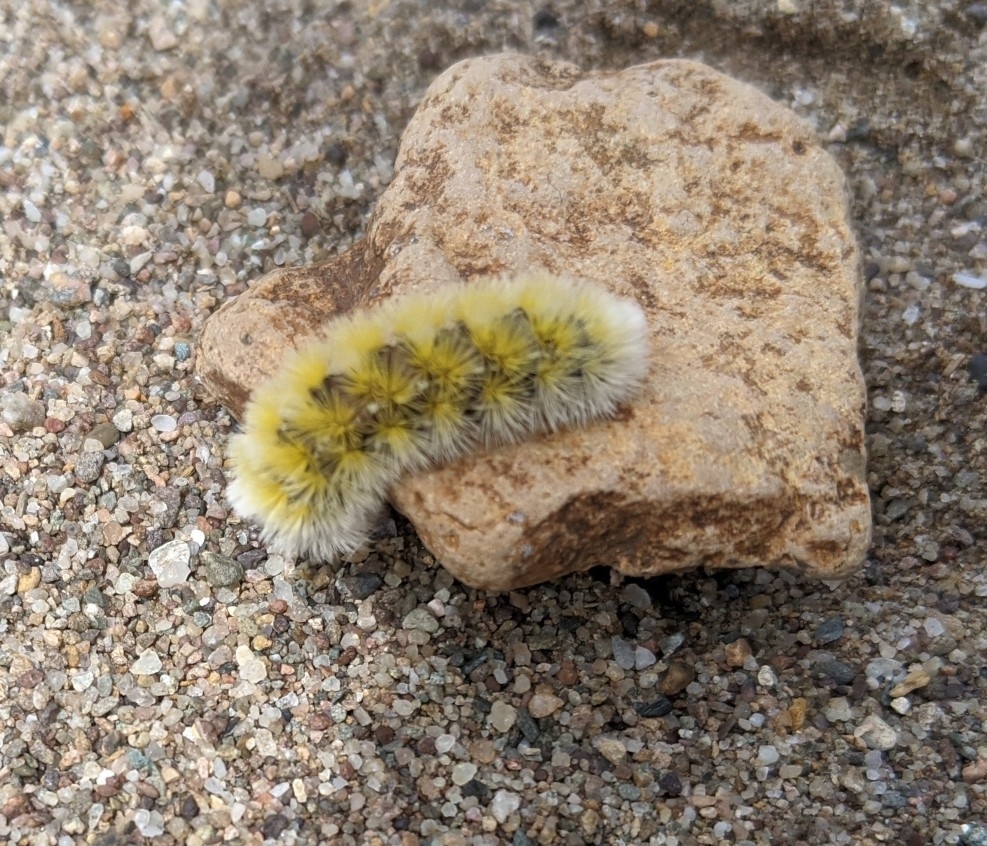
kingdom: Animalia
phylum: Arthropoda
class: Insecta
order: Lepidoptera
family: Erebidae
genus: Ctenucha
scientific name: Ctenucha virginica
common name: Virginia ctenucha moth
